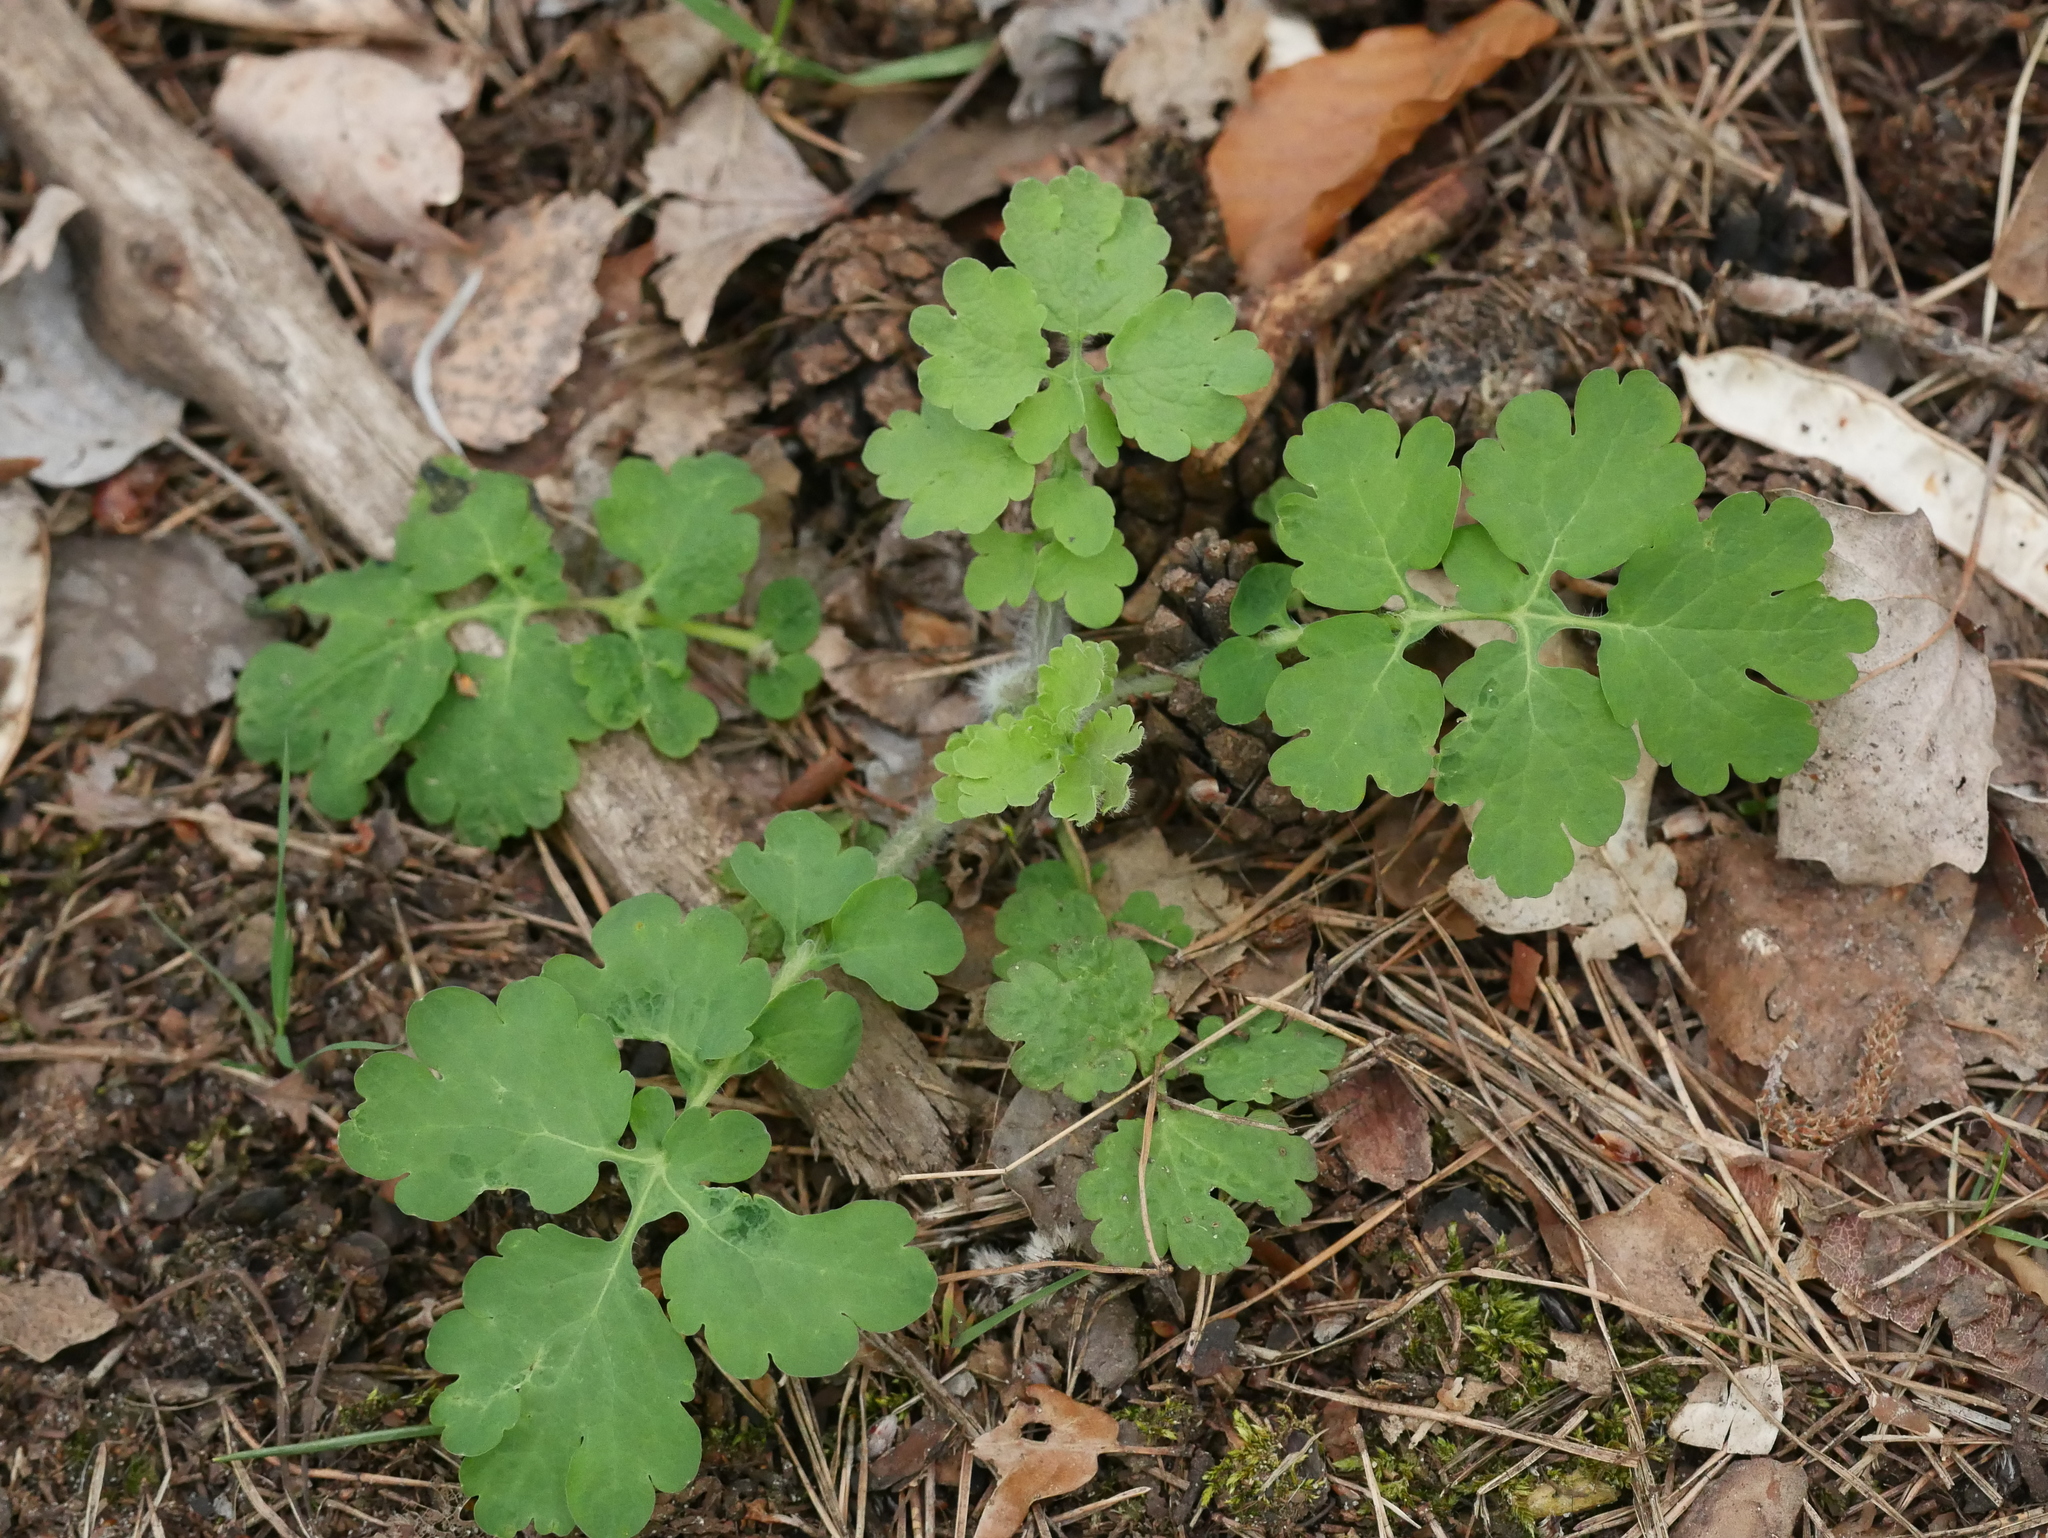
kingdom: Plantae
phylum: Tracheophyta
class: Magnoliopsida
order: Ranunculales
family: Papaveraceae
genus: Chelidonium
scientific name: Chelidonium majus
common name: Greater celandine
